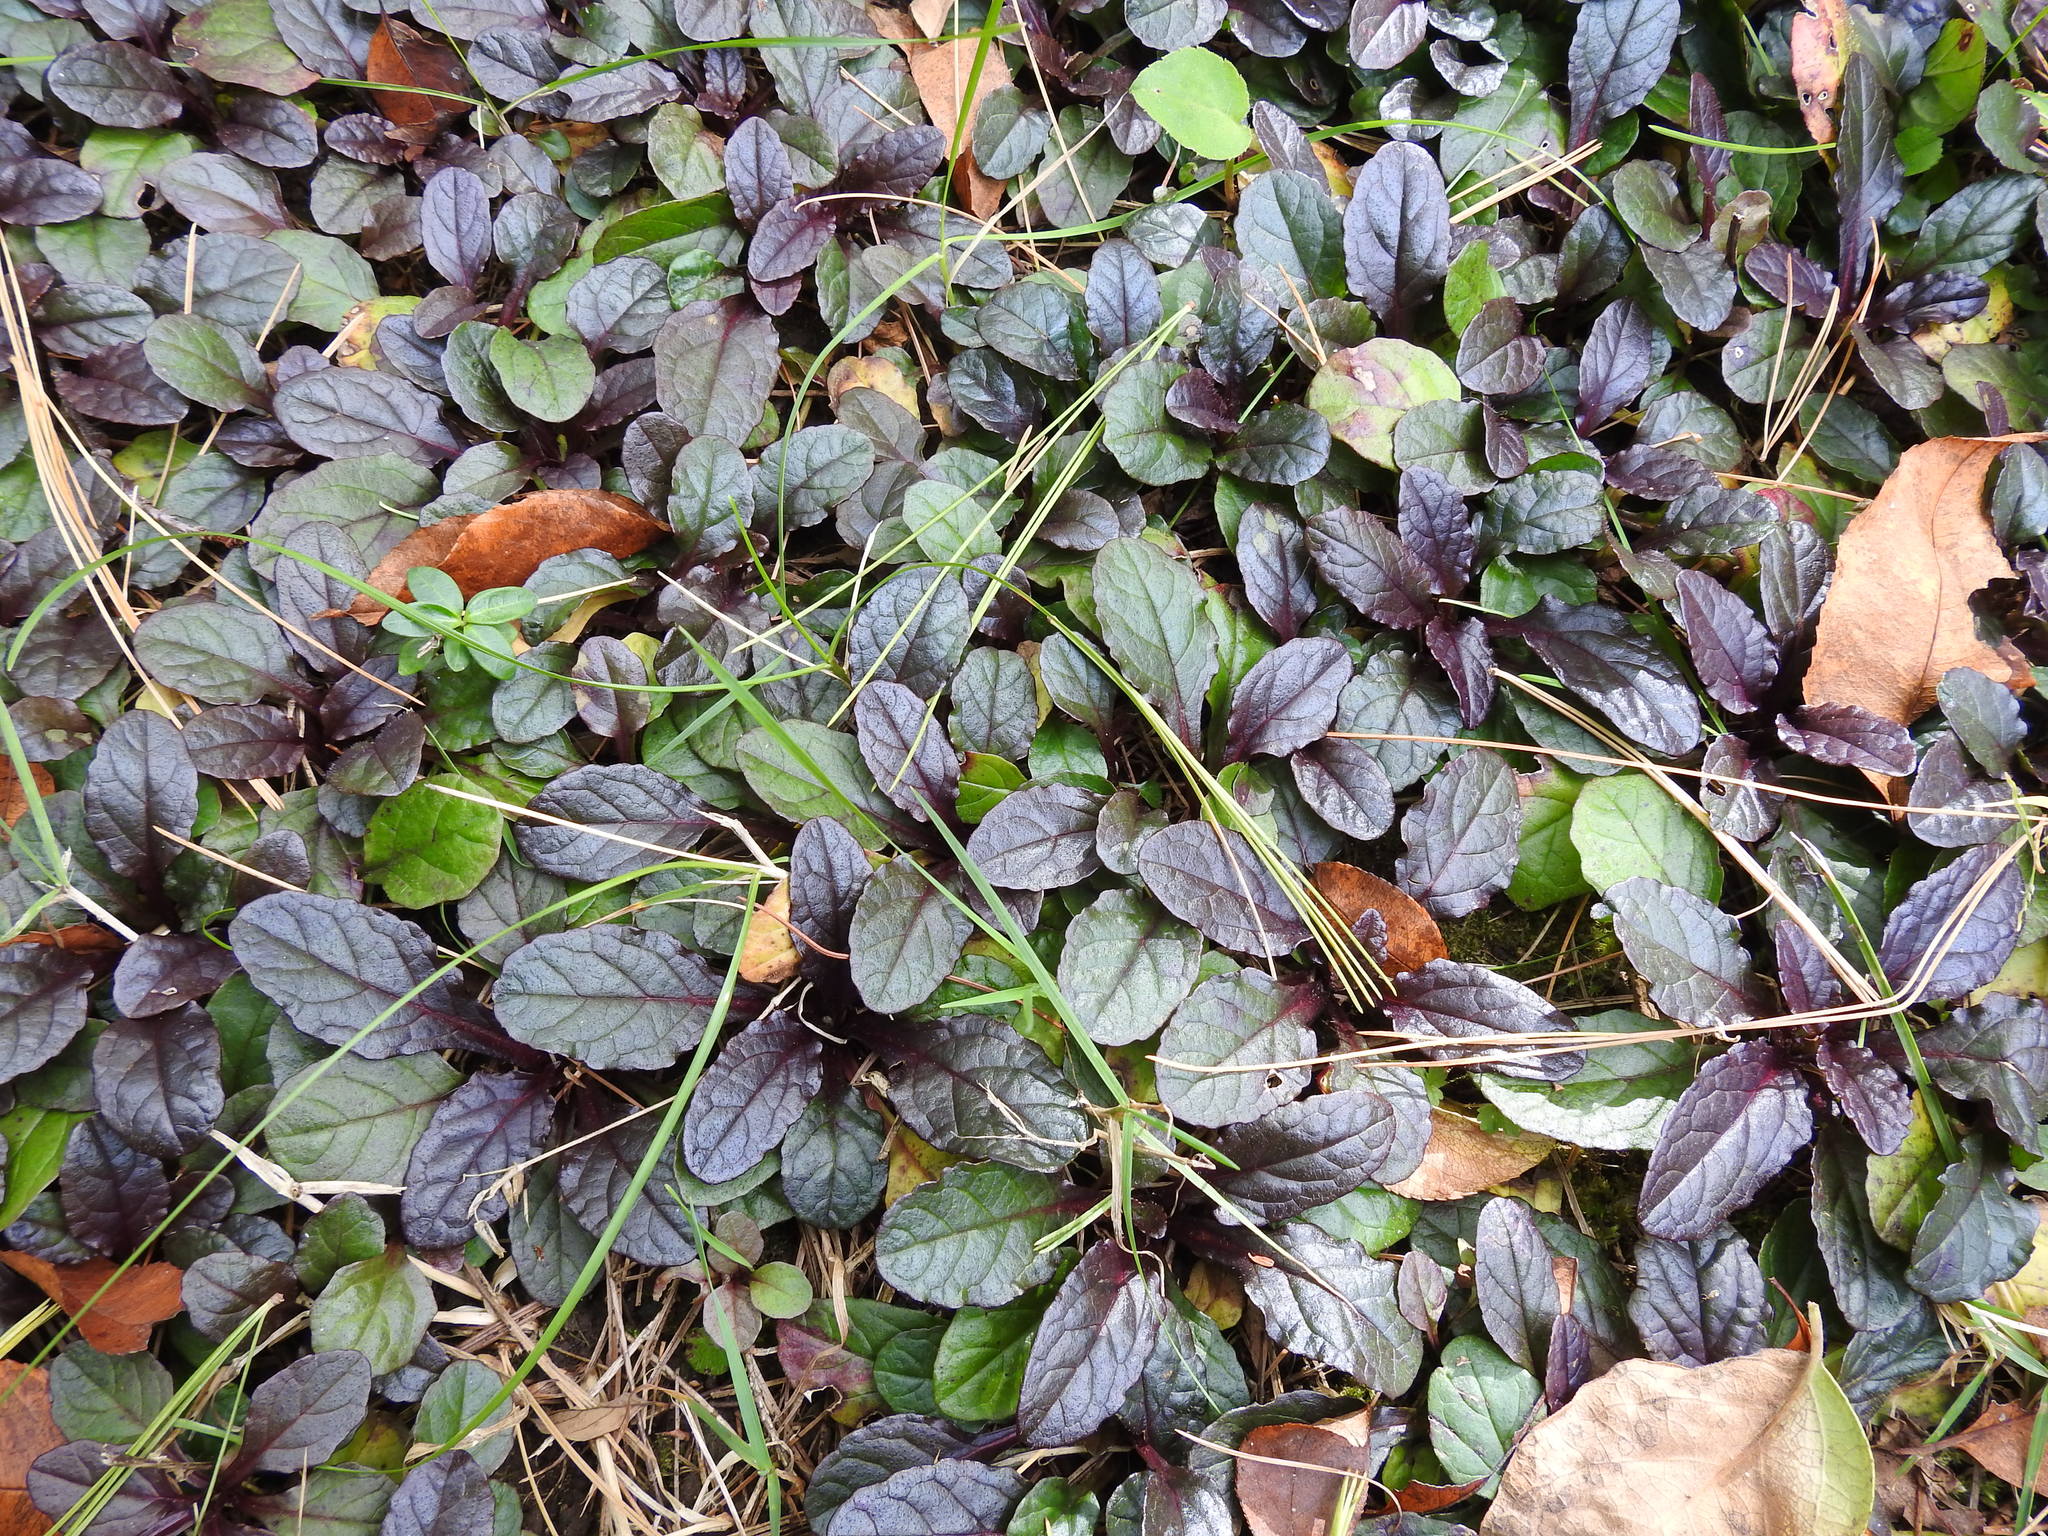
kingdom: Plantae
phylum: Tracheophyta
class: Magnoliopsida
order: Lamiales
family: Lamiaceae
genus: Ajuga
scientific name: Ajuga reptans
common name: Bugle
